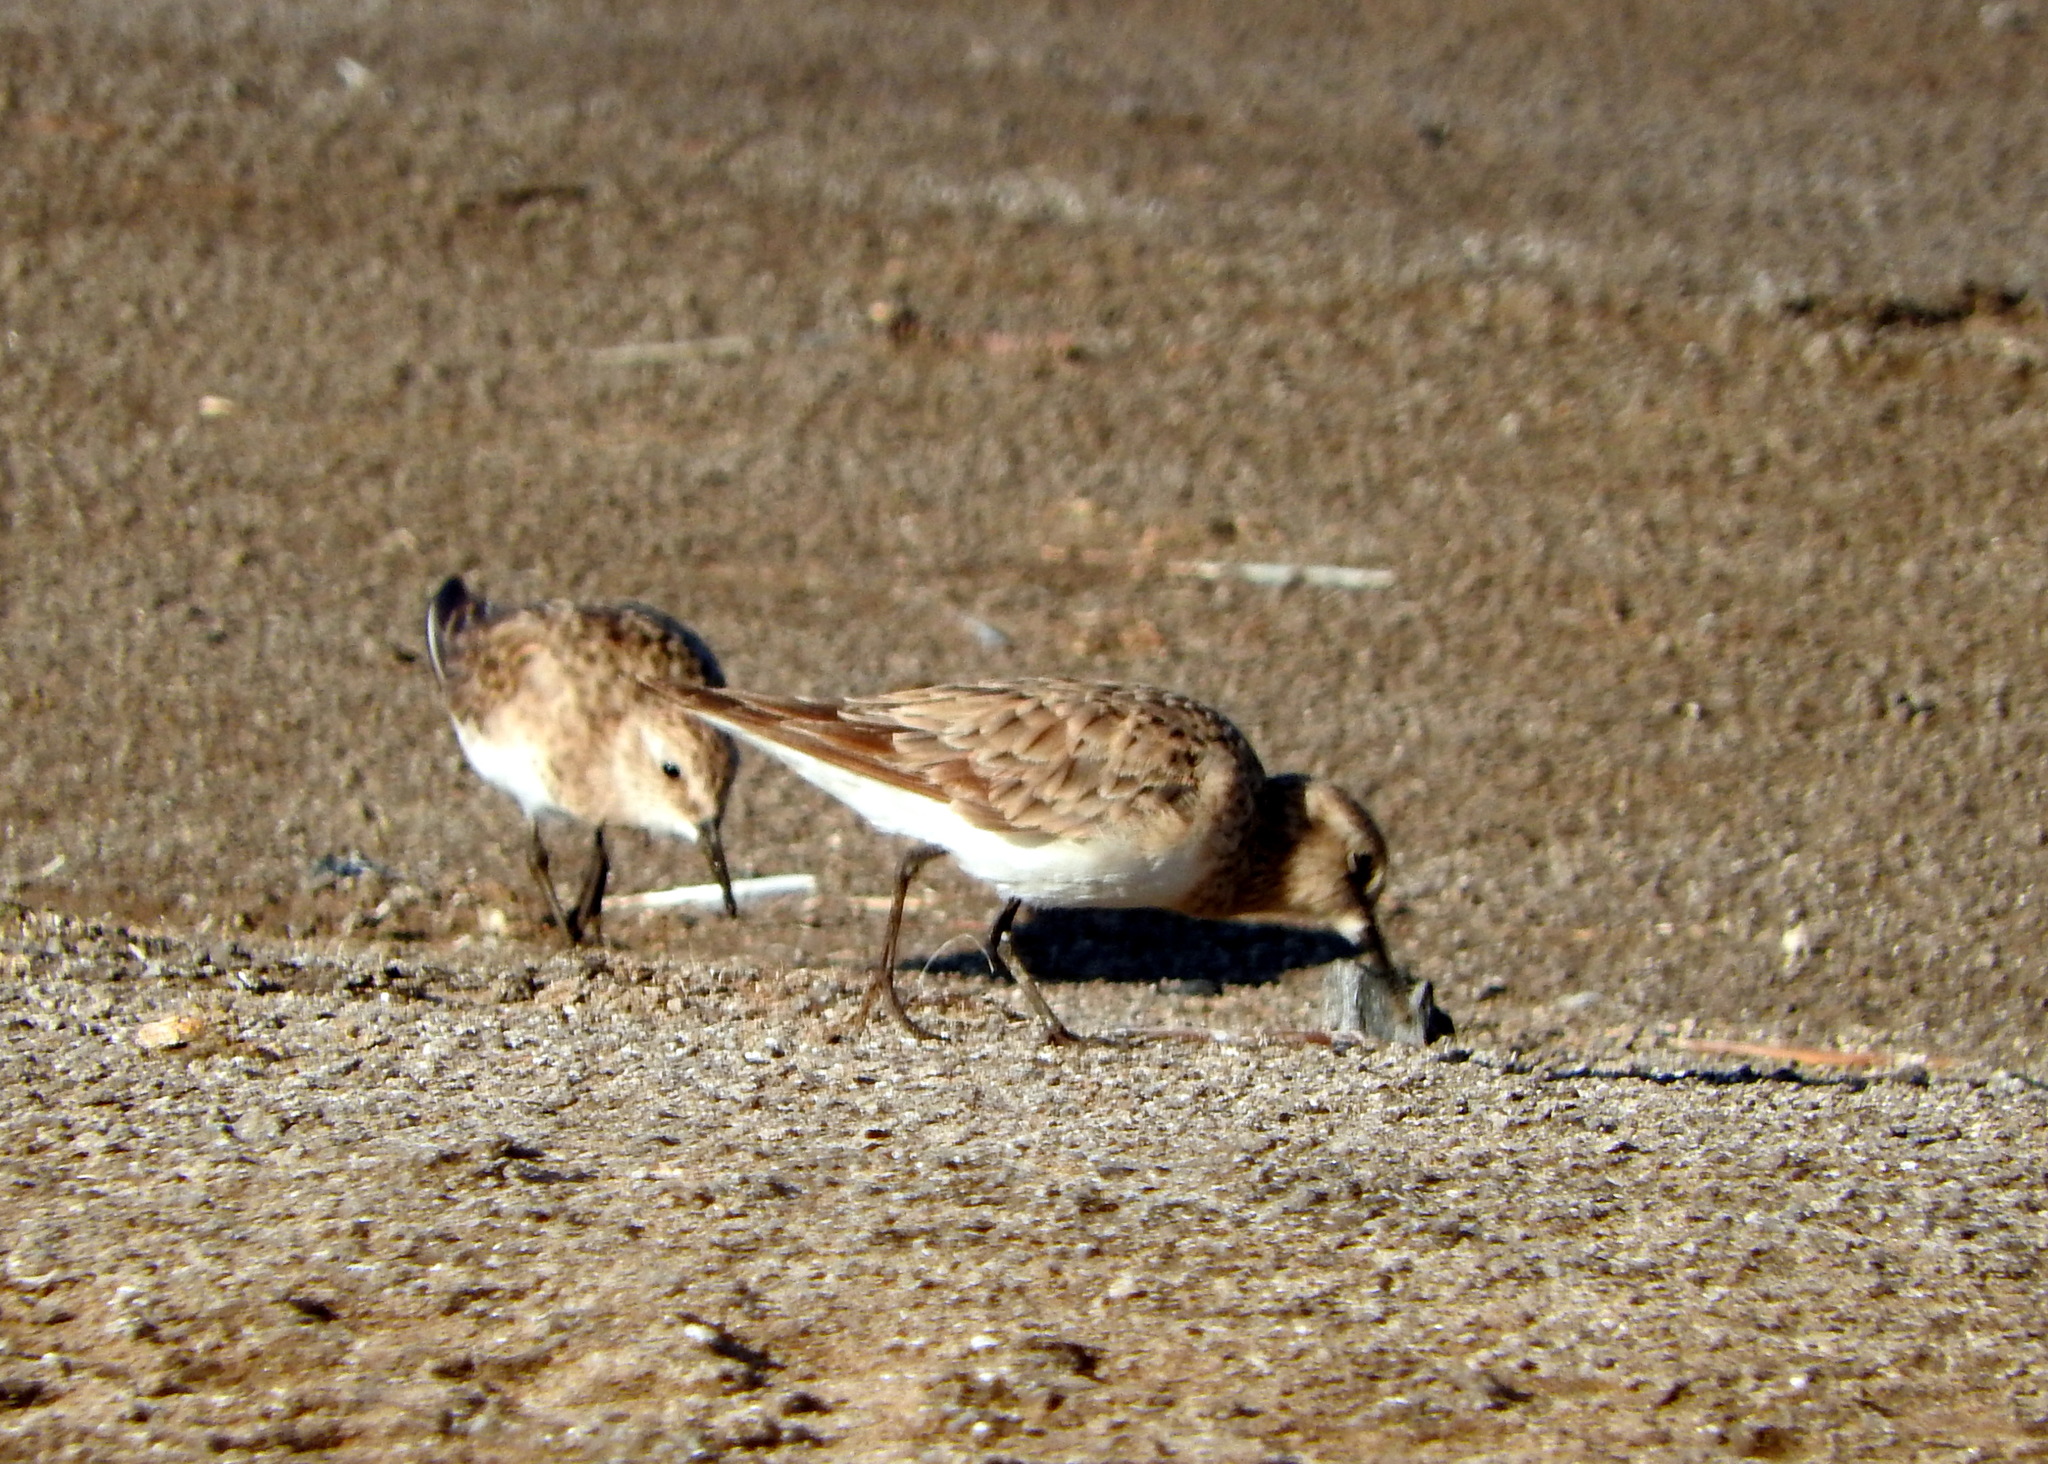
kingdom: Animalia
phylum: Chordata
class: Aves
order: Charadriiformes
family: Scolopacidae
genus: Calidris
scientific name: Calidris bairdii
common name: Baird's sandpiper
